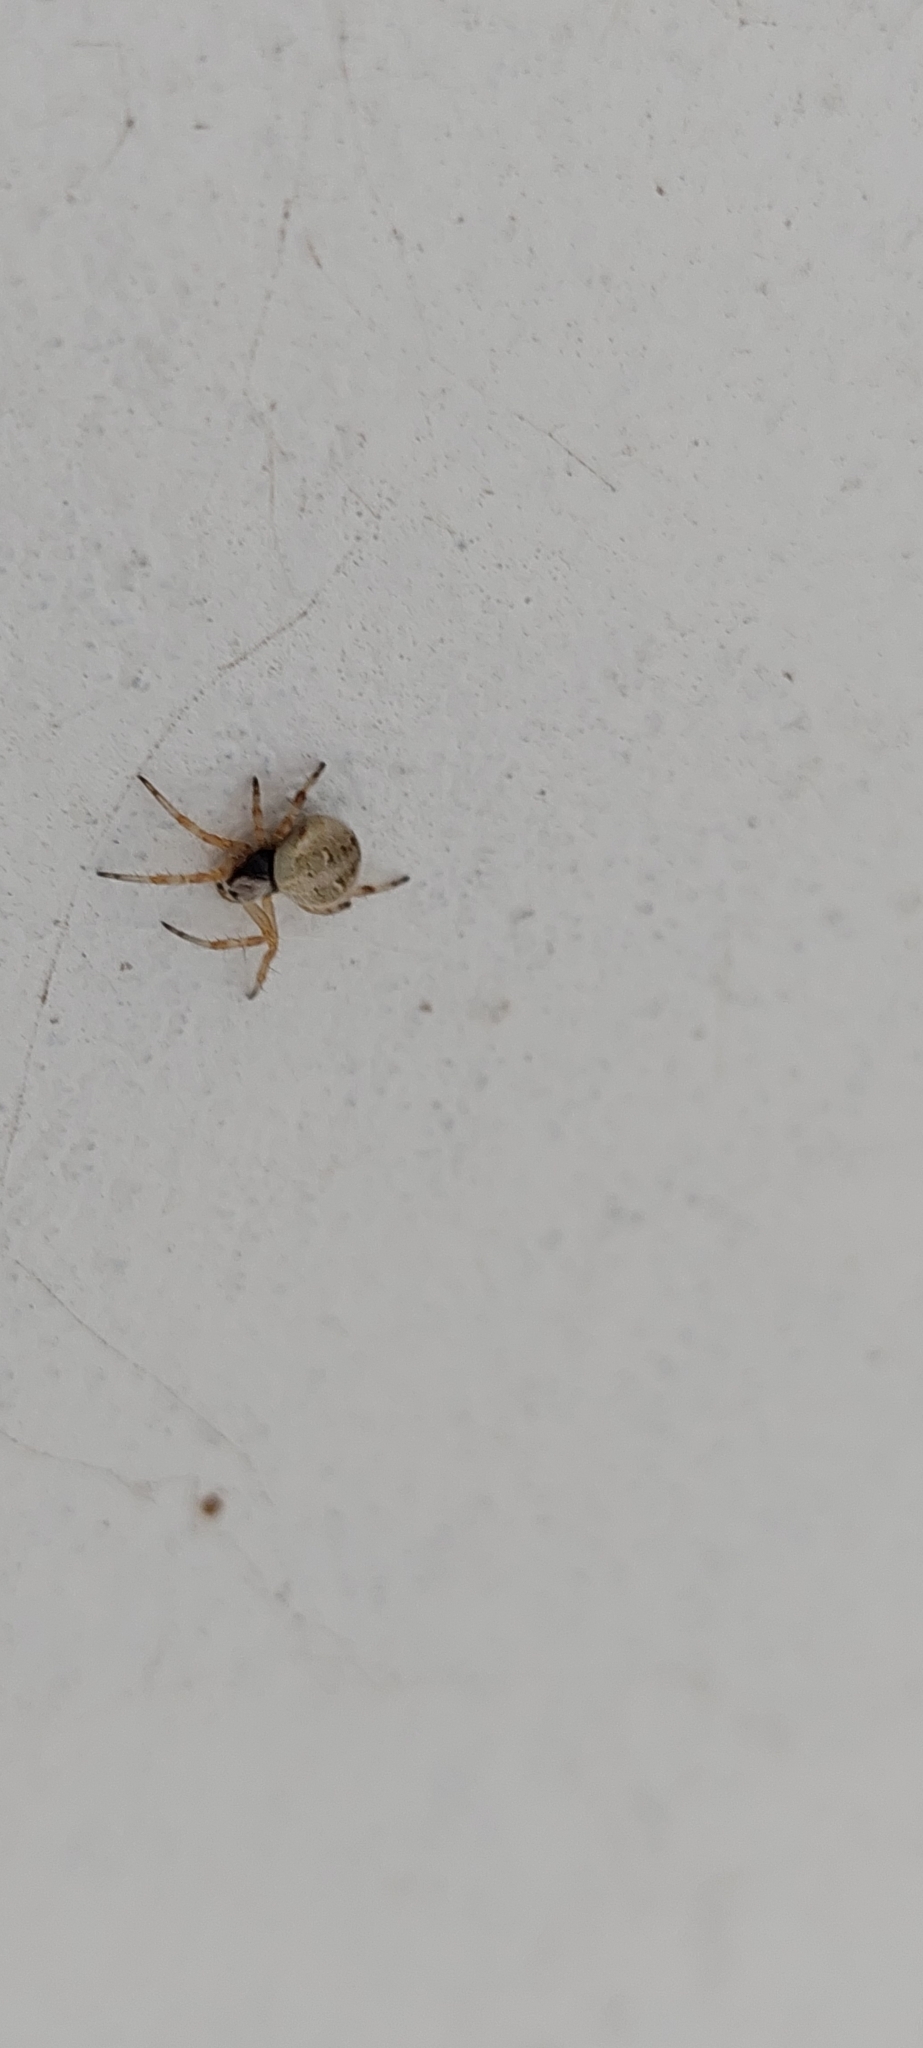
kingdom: Animalia
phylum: Arthropoda
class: Arachnida
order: Araneae
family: Araneidae
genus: Metepeira
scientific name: Metepeira
